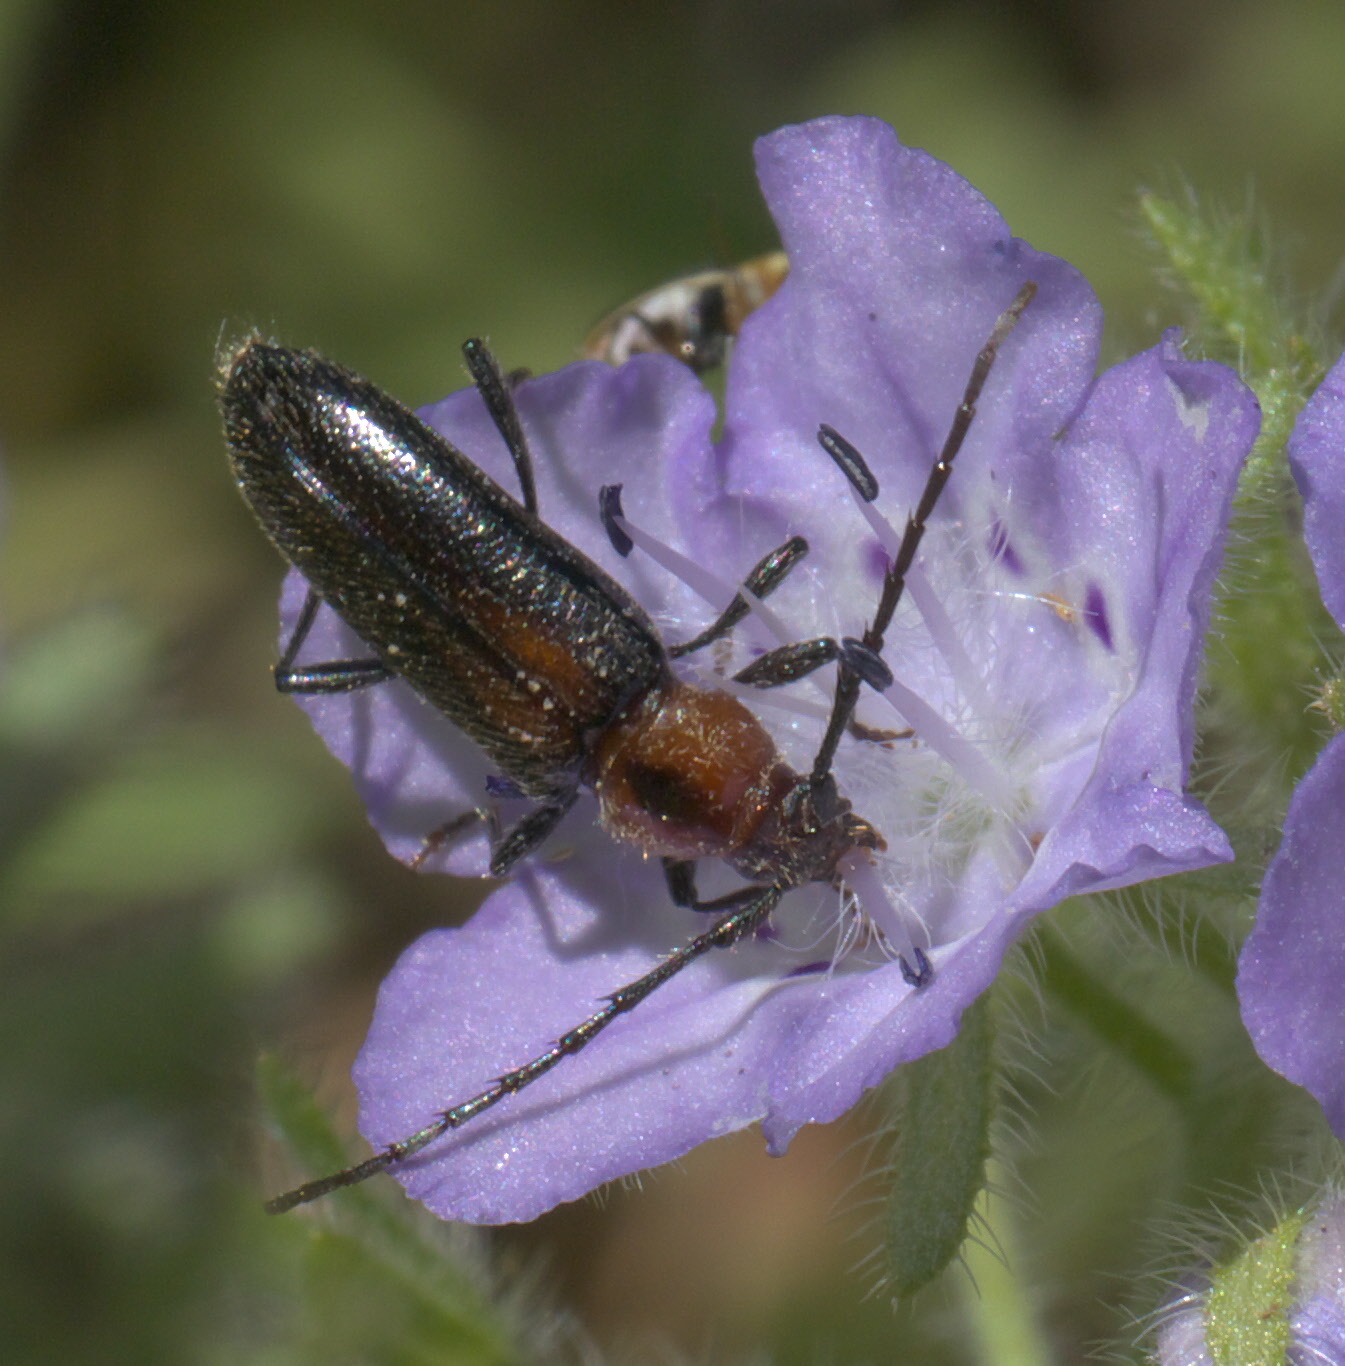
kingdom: Animalia
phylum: Arthropoda
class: Insecta
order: Coleoptera
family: Cerambycidae
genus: Stenosphenus
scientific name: Stenosphenus notatus
